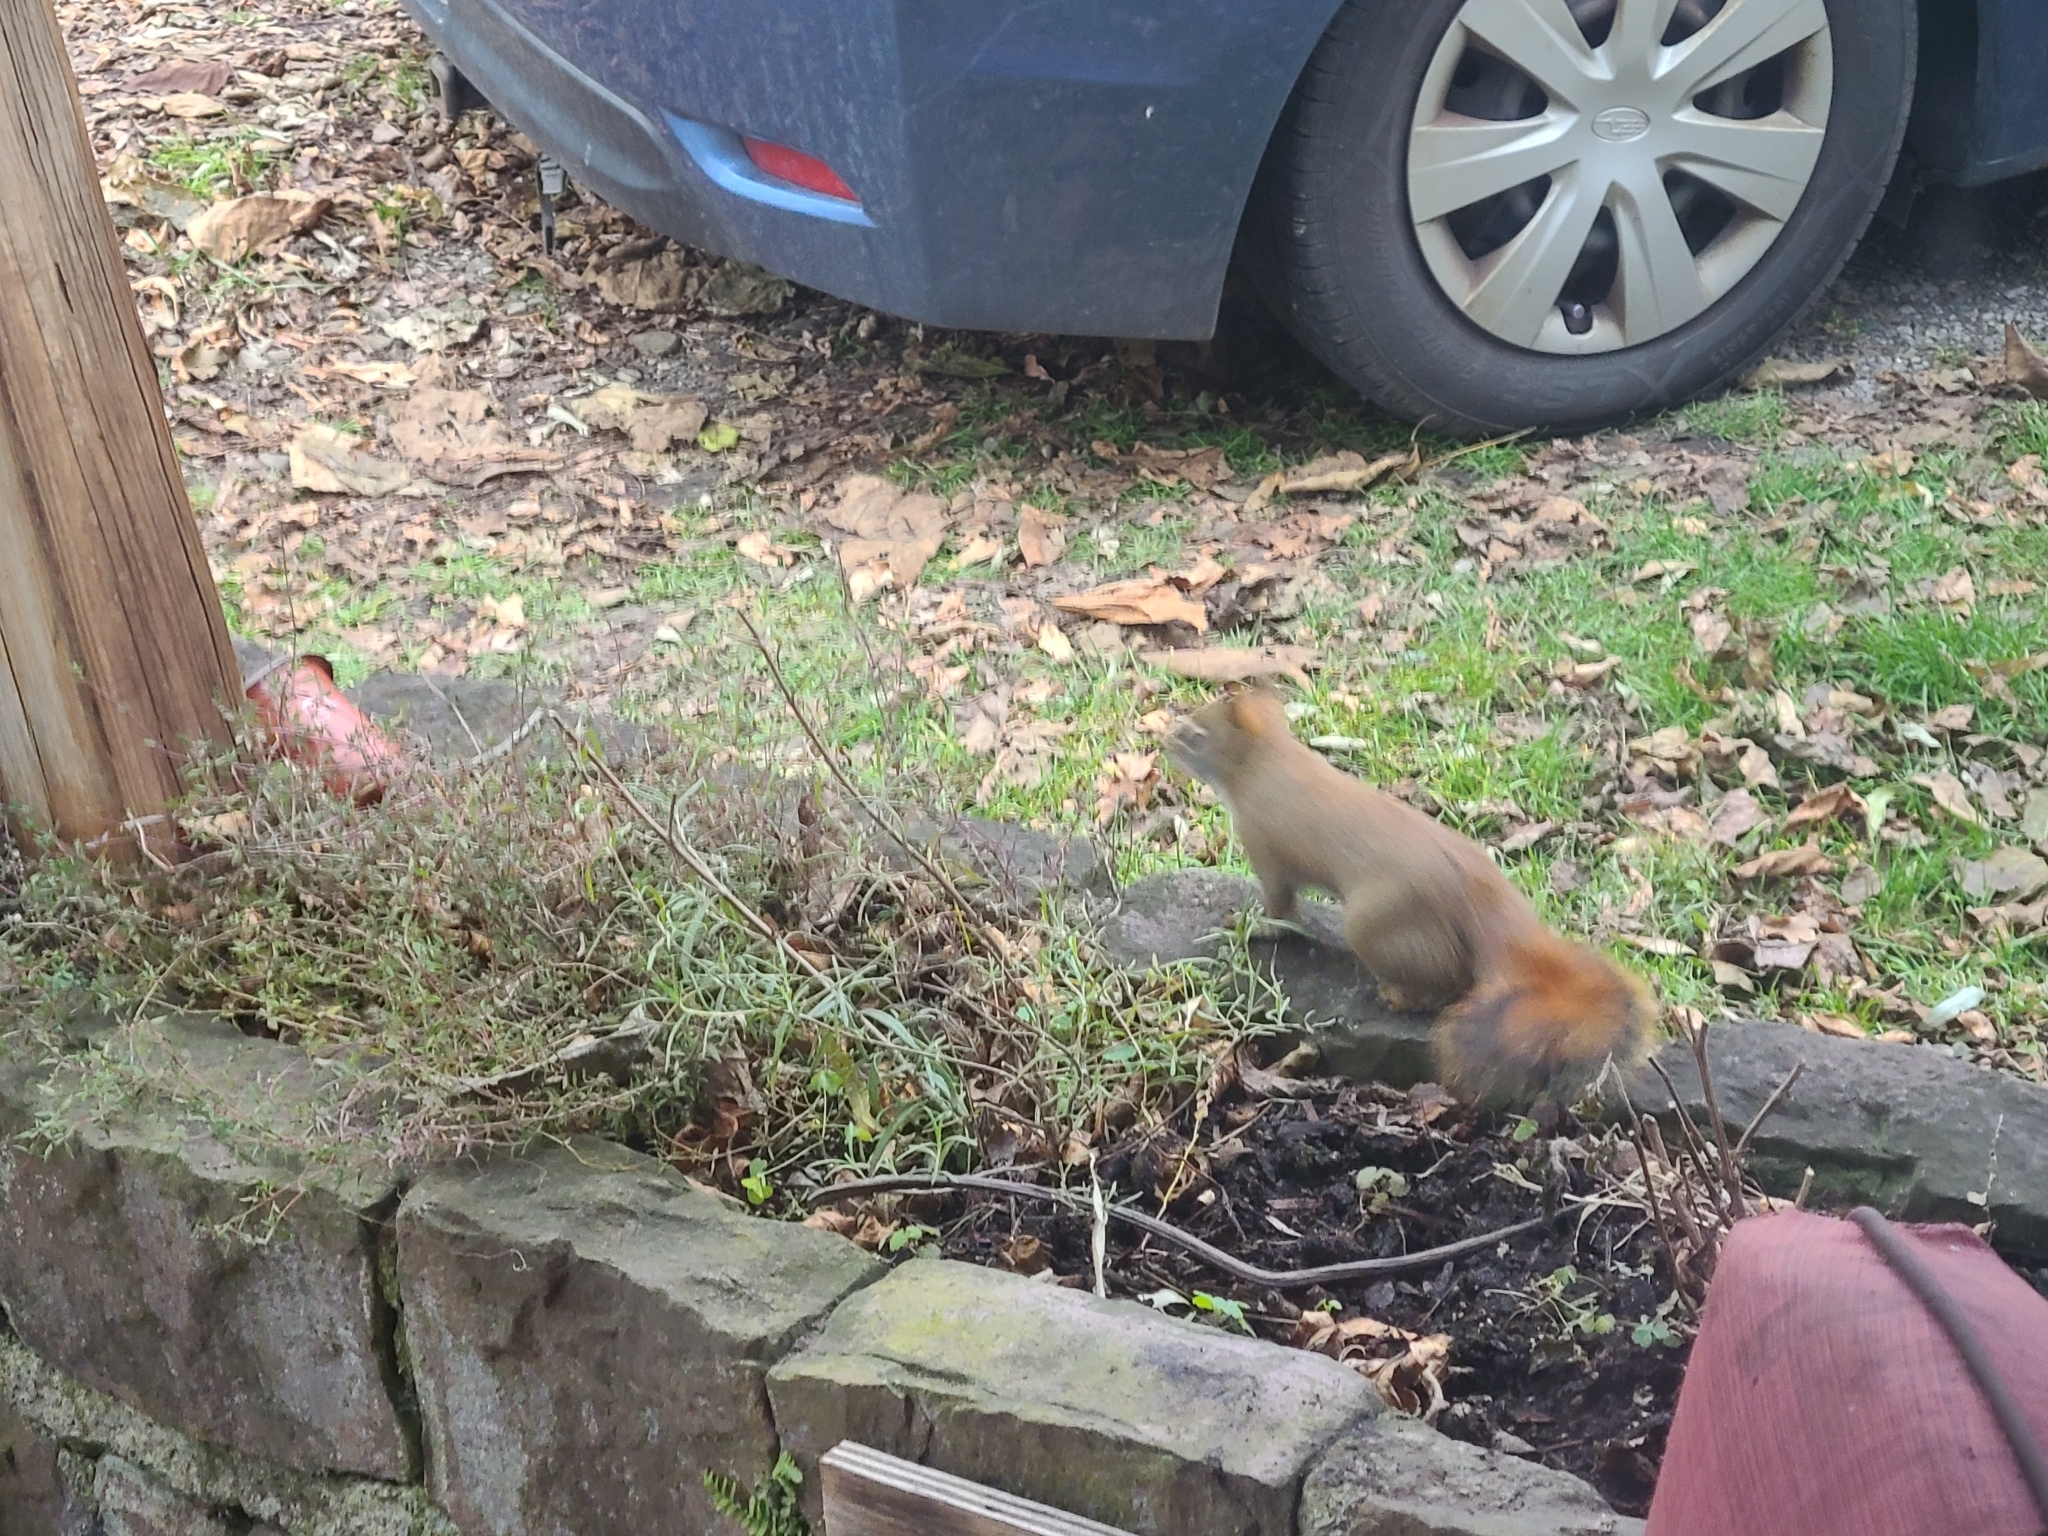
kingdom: Animalia
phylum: Chordata
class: Mammalia
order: Rodentia
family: Sciuridae
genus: Tamiasciurus
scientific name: Tamiasciurus hudsonicus
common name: Red squirrel
